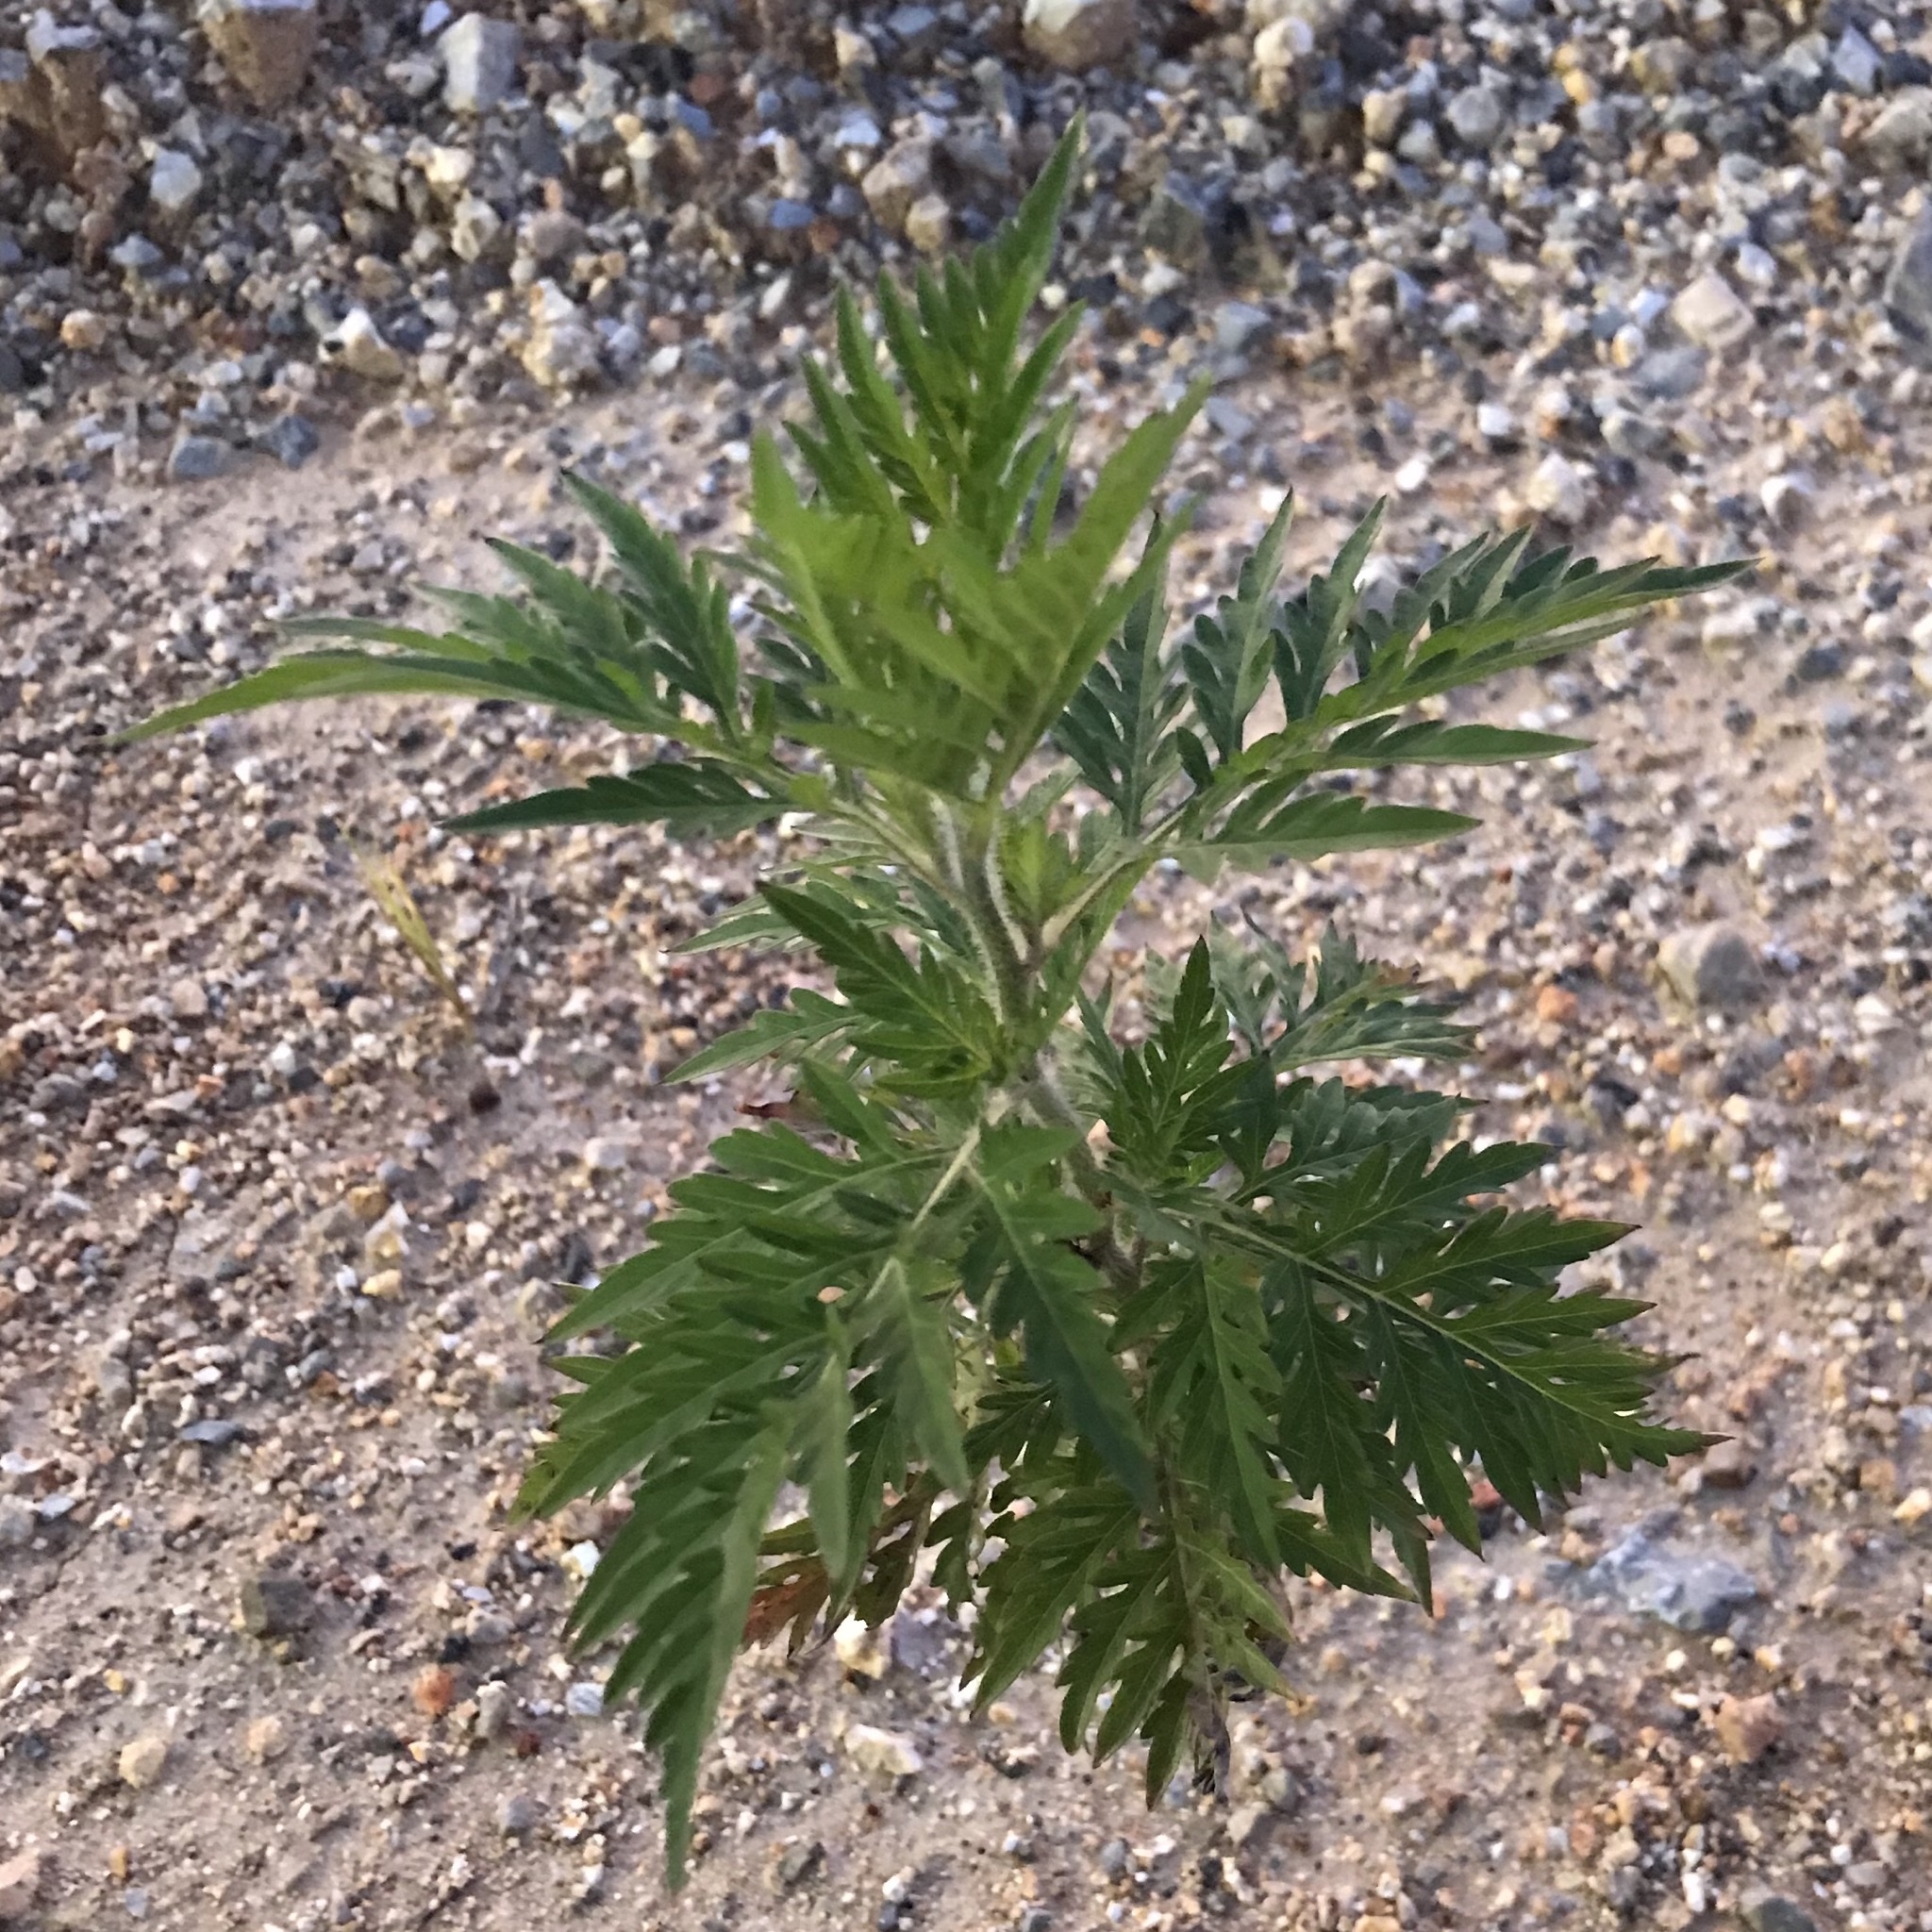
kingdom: Plantae
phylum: Tracheophyta
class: Magnoliopsida
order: Asterales
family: Asteraceae
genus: Ambrosia
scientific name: Ambrosia artemisiifolia
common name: Annual ragweed
